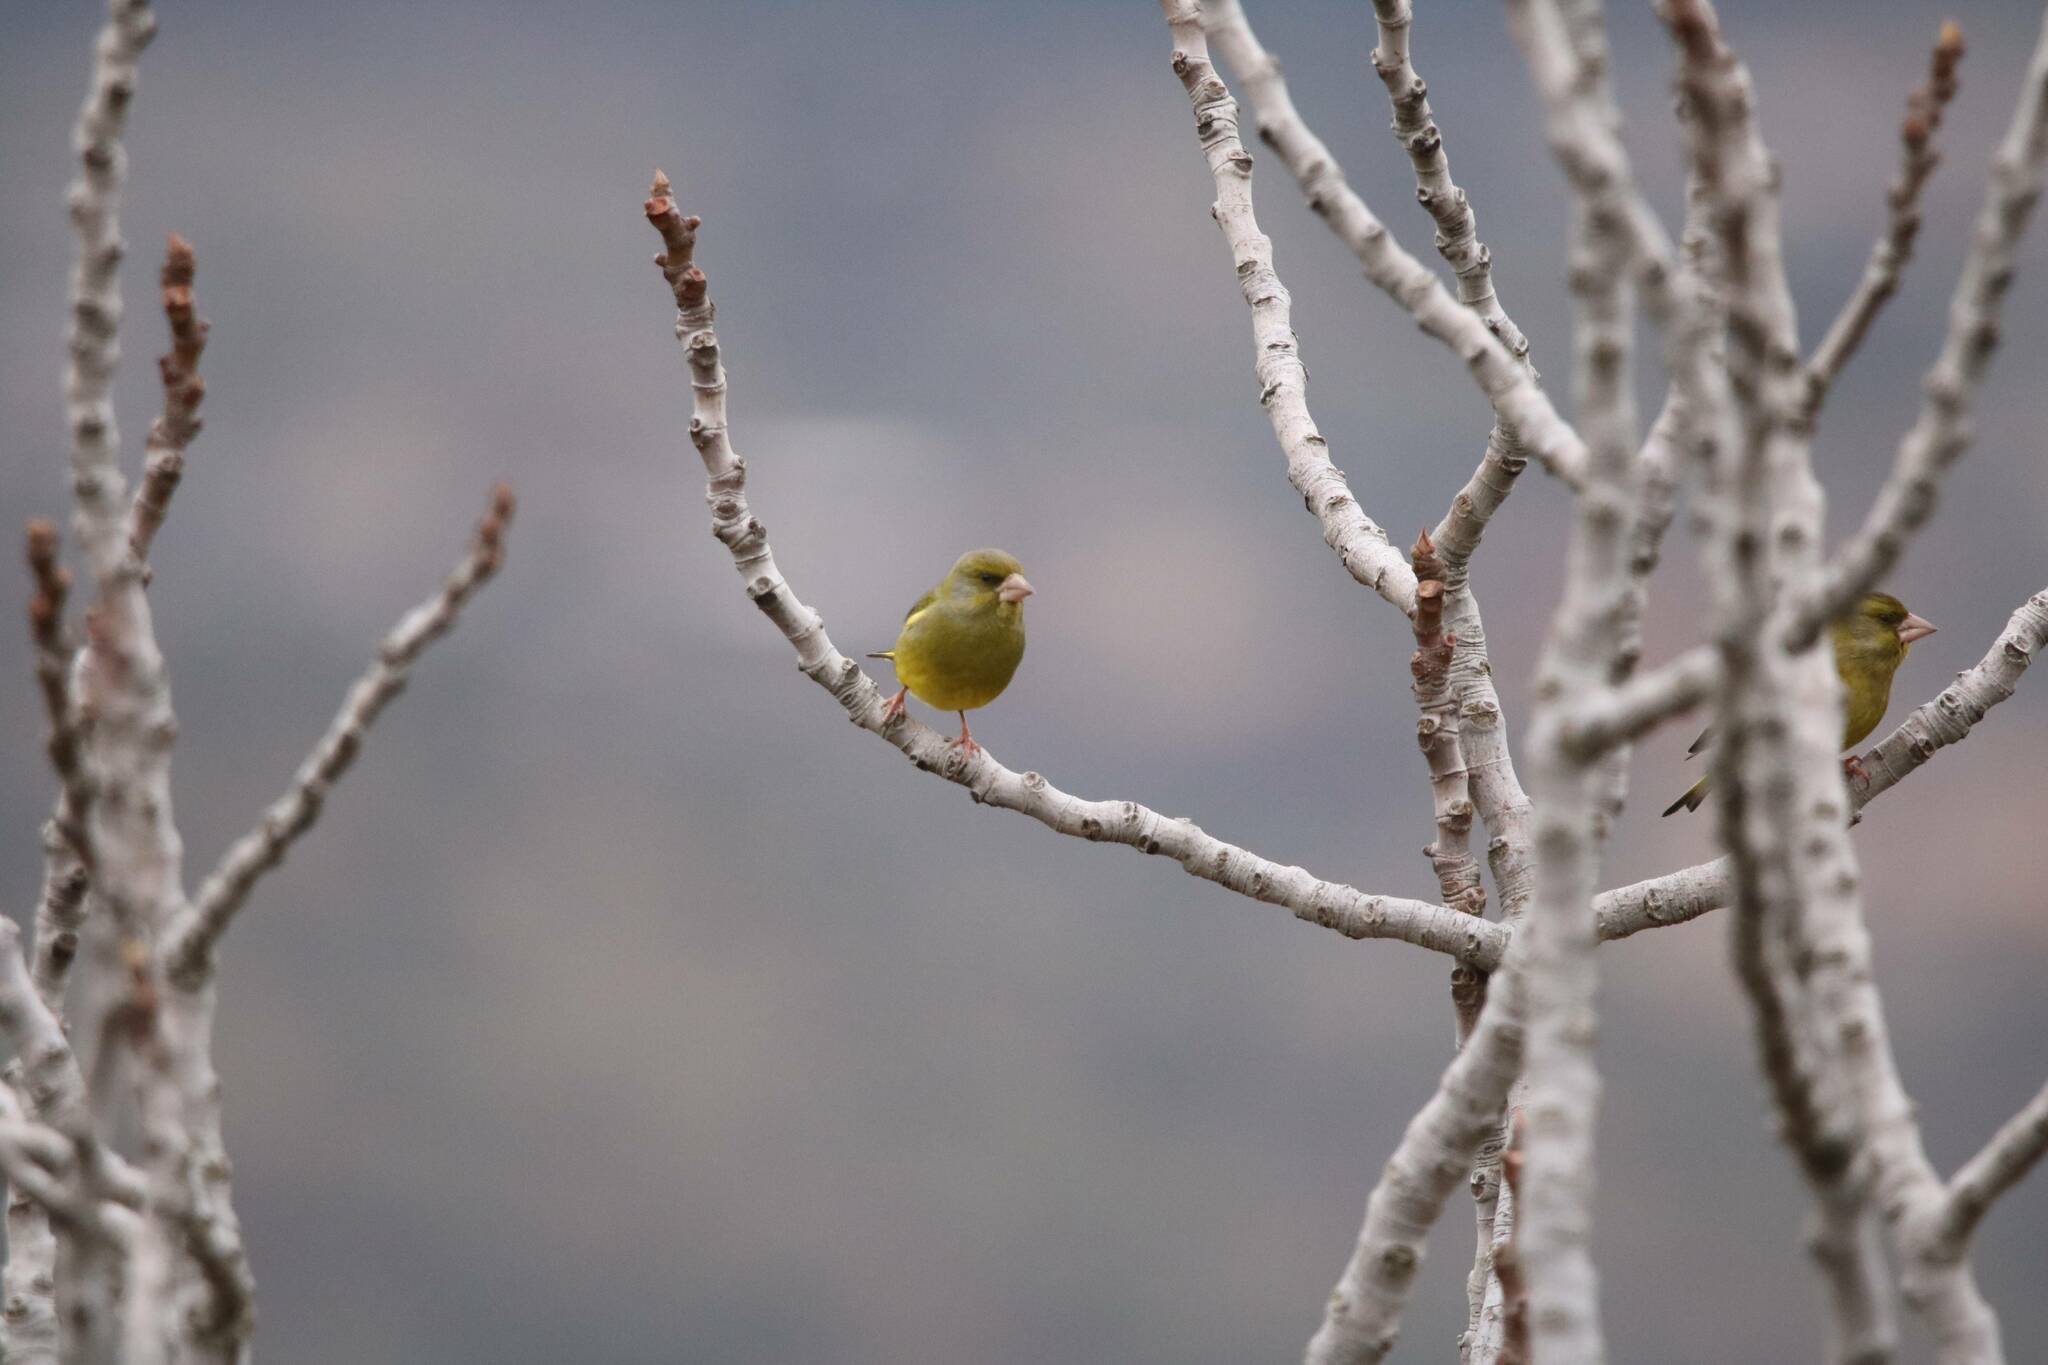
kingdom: Plantae
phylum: Tracheophyta
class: Liliopsida
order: Poales
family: Poaceae
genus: Chloris
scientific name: Chloris chloris
